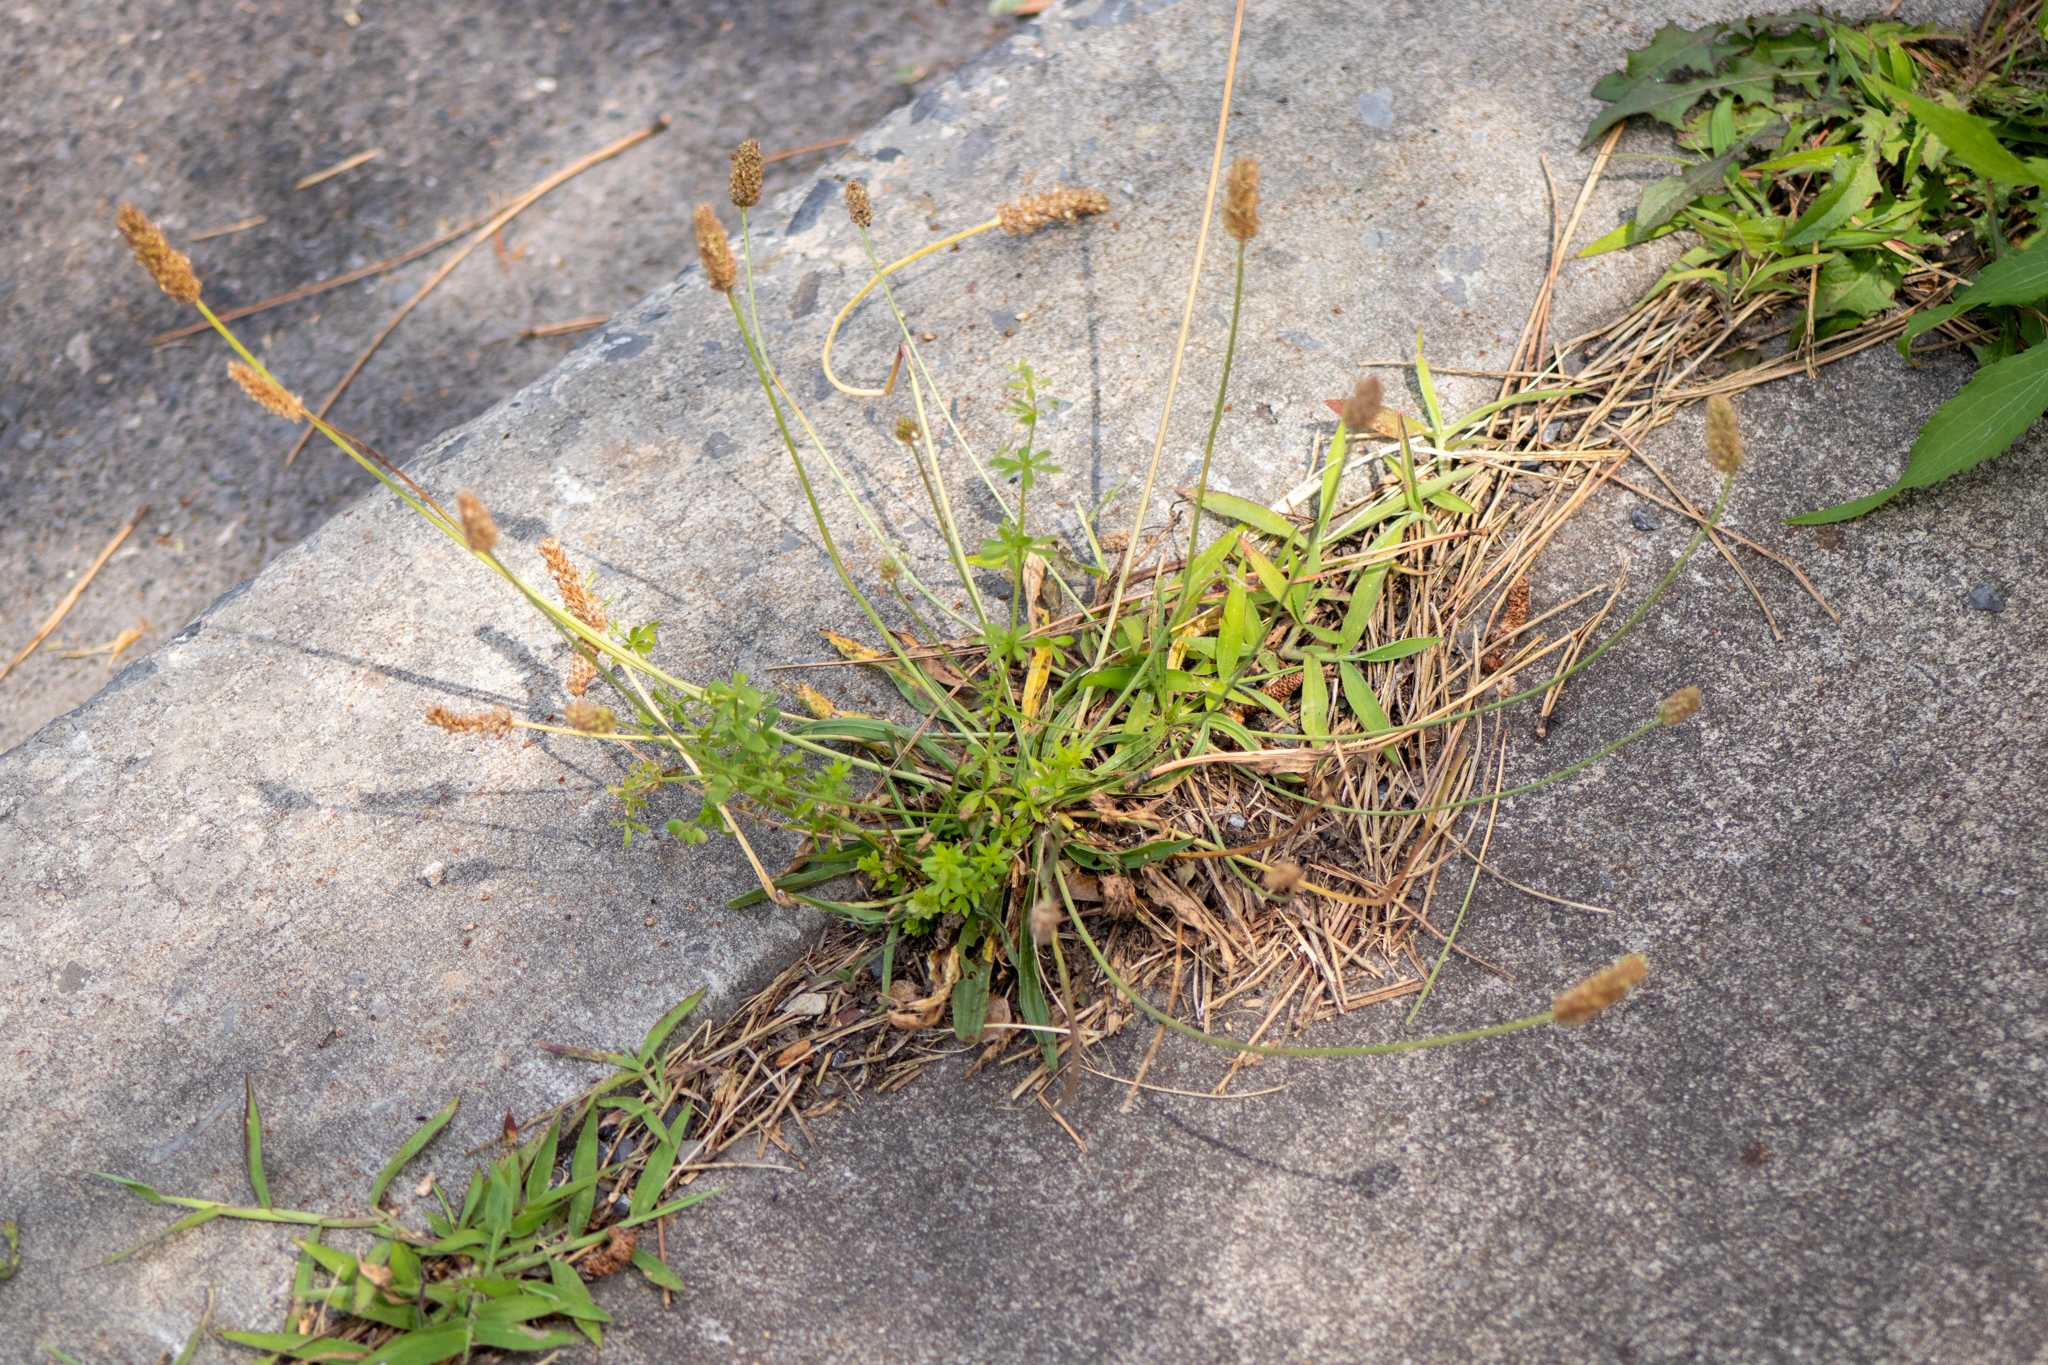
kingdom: Plantae
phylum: Tracheophyta
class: Magnoliopsida
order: Lamiales
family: Plantaginaceae
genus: Plantago
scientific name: Plantago lanceolata
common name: Ribwort plantain
